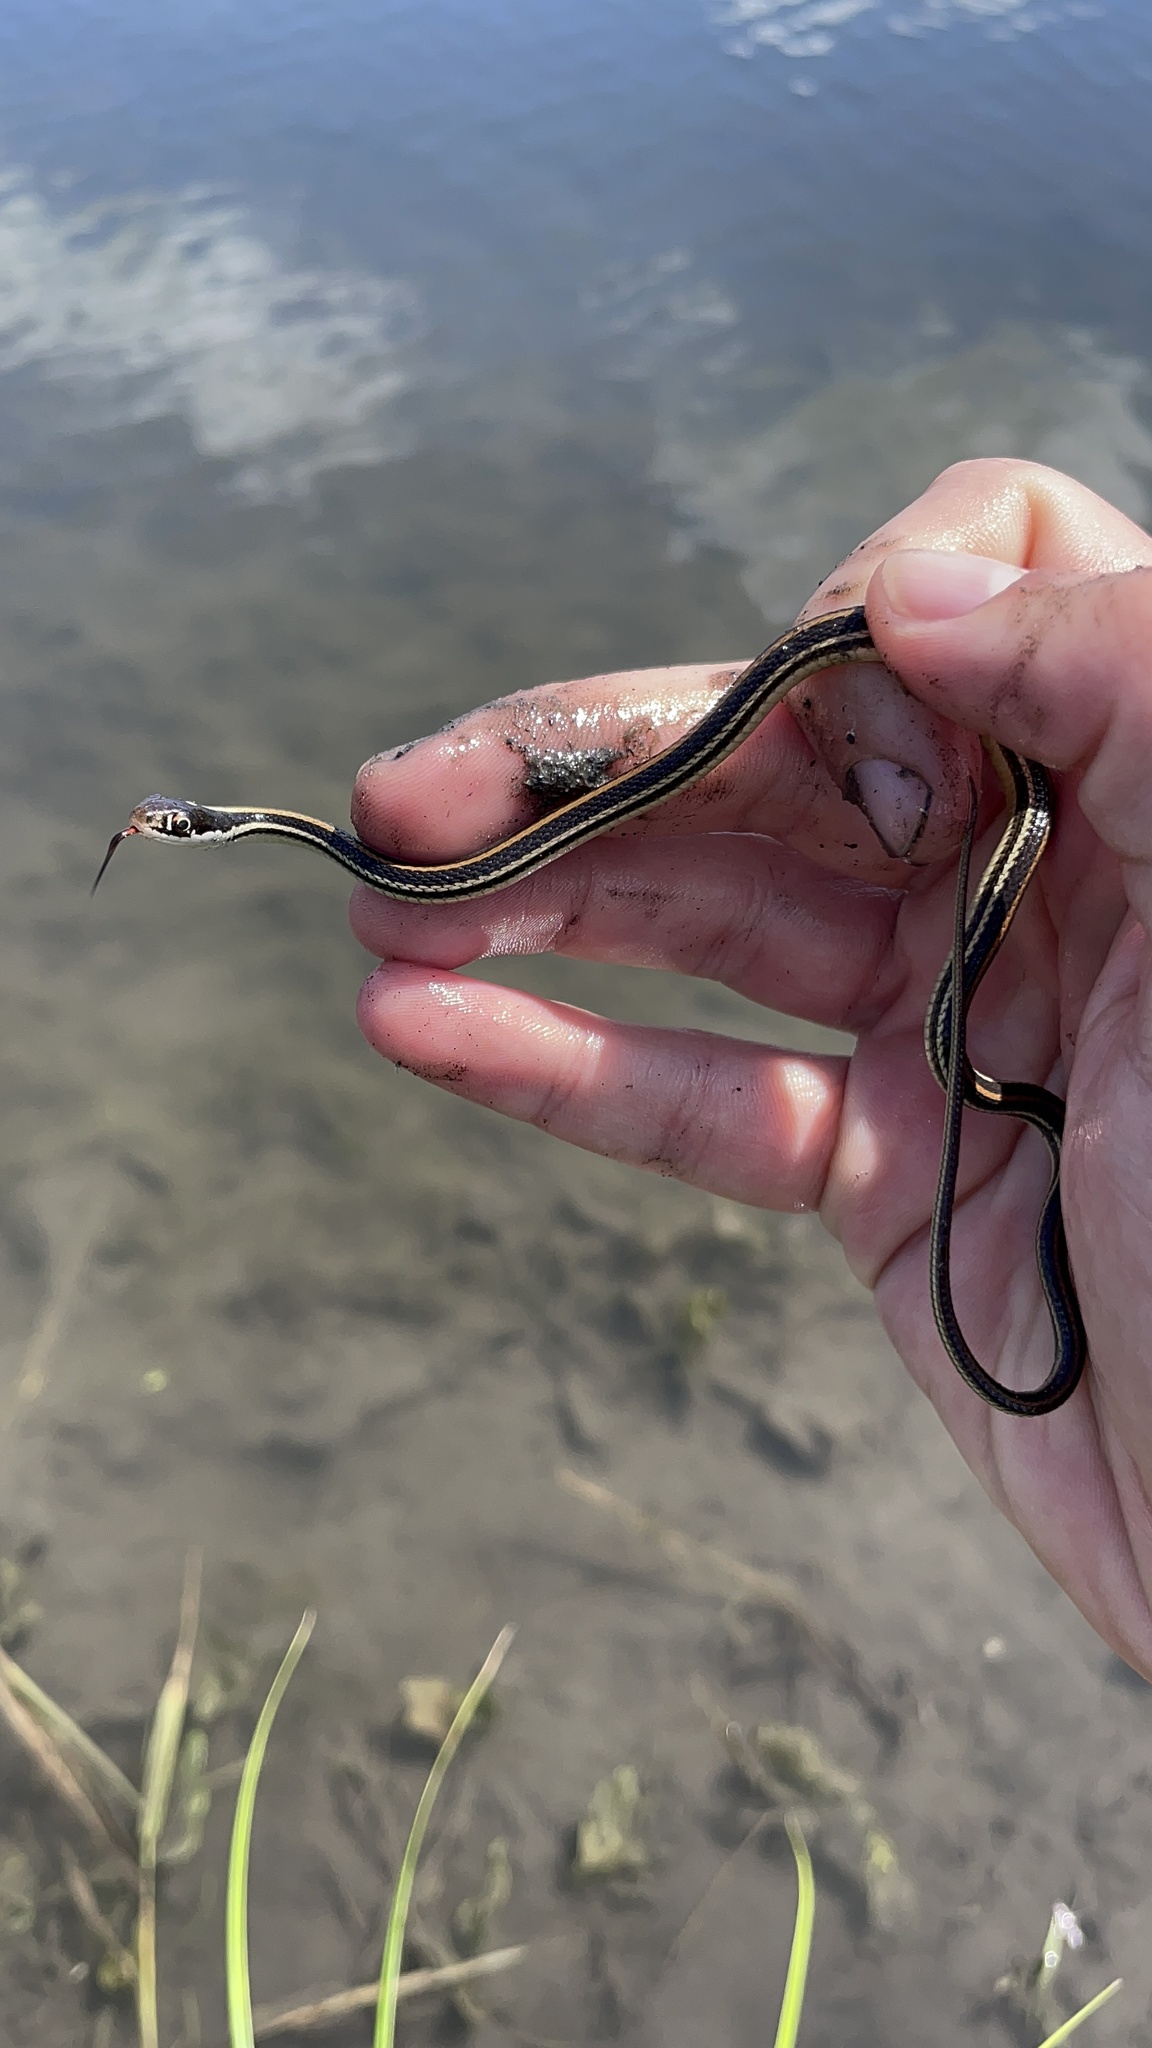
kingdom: Animalia
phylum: Chordata
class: Squamata
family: Colubridae
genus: Thamnophis
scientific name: Thamnophis proximus
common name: Western ribbon snake
